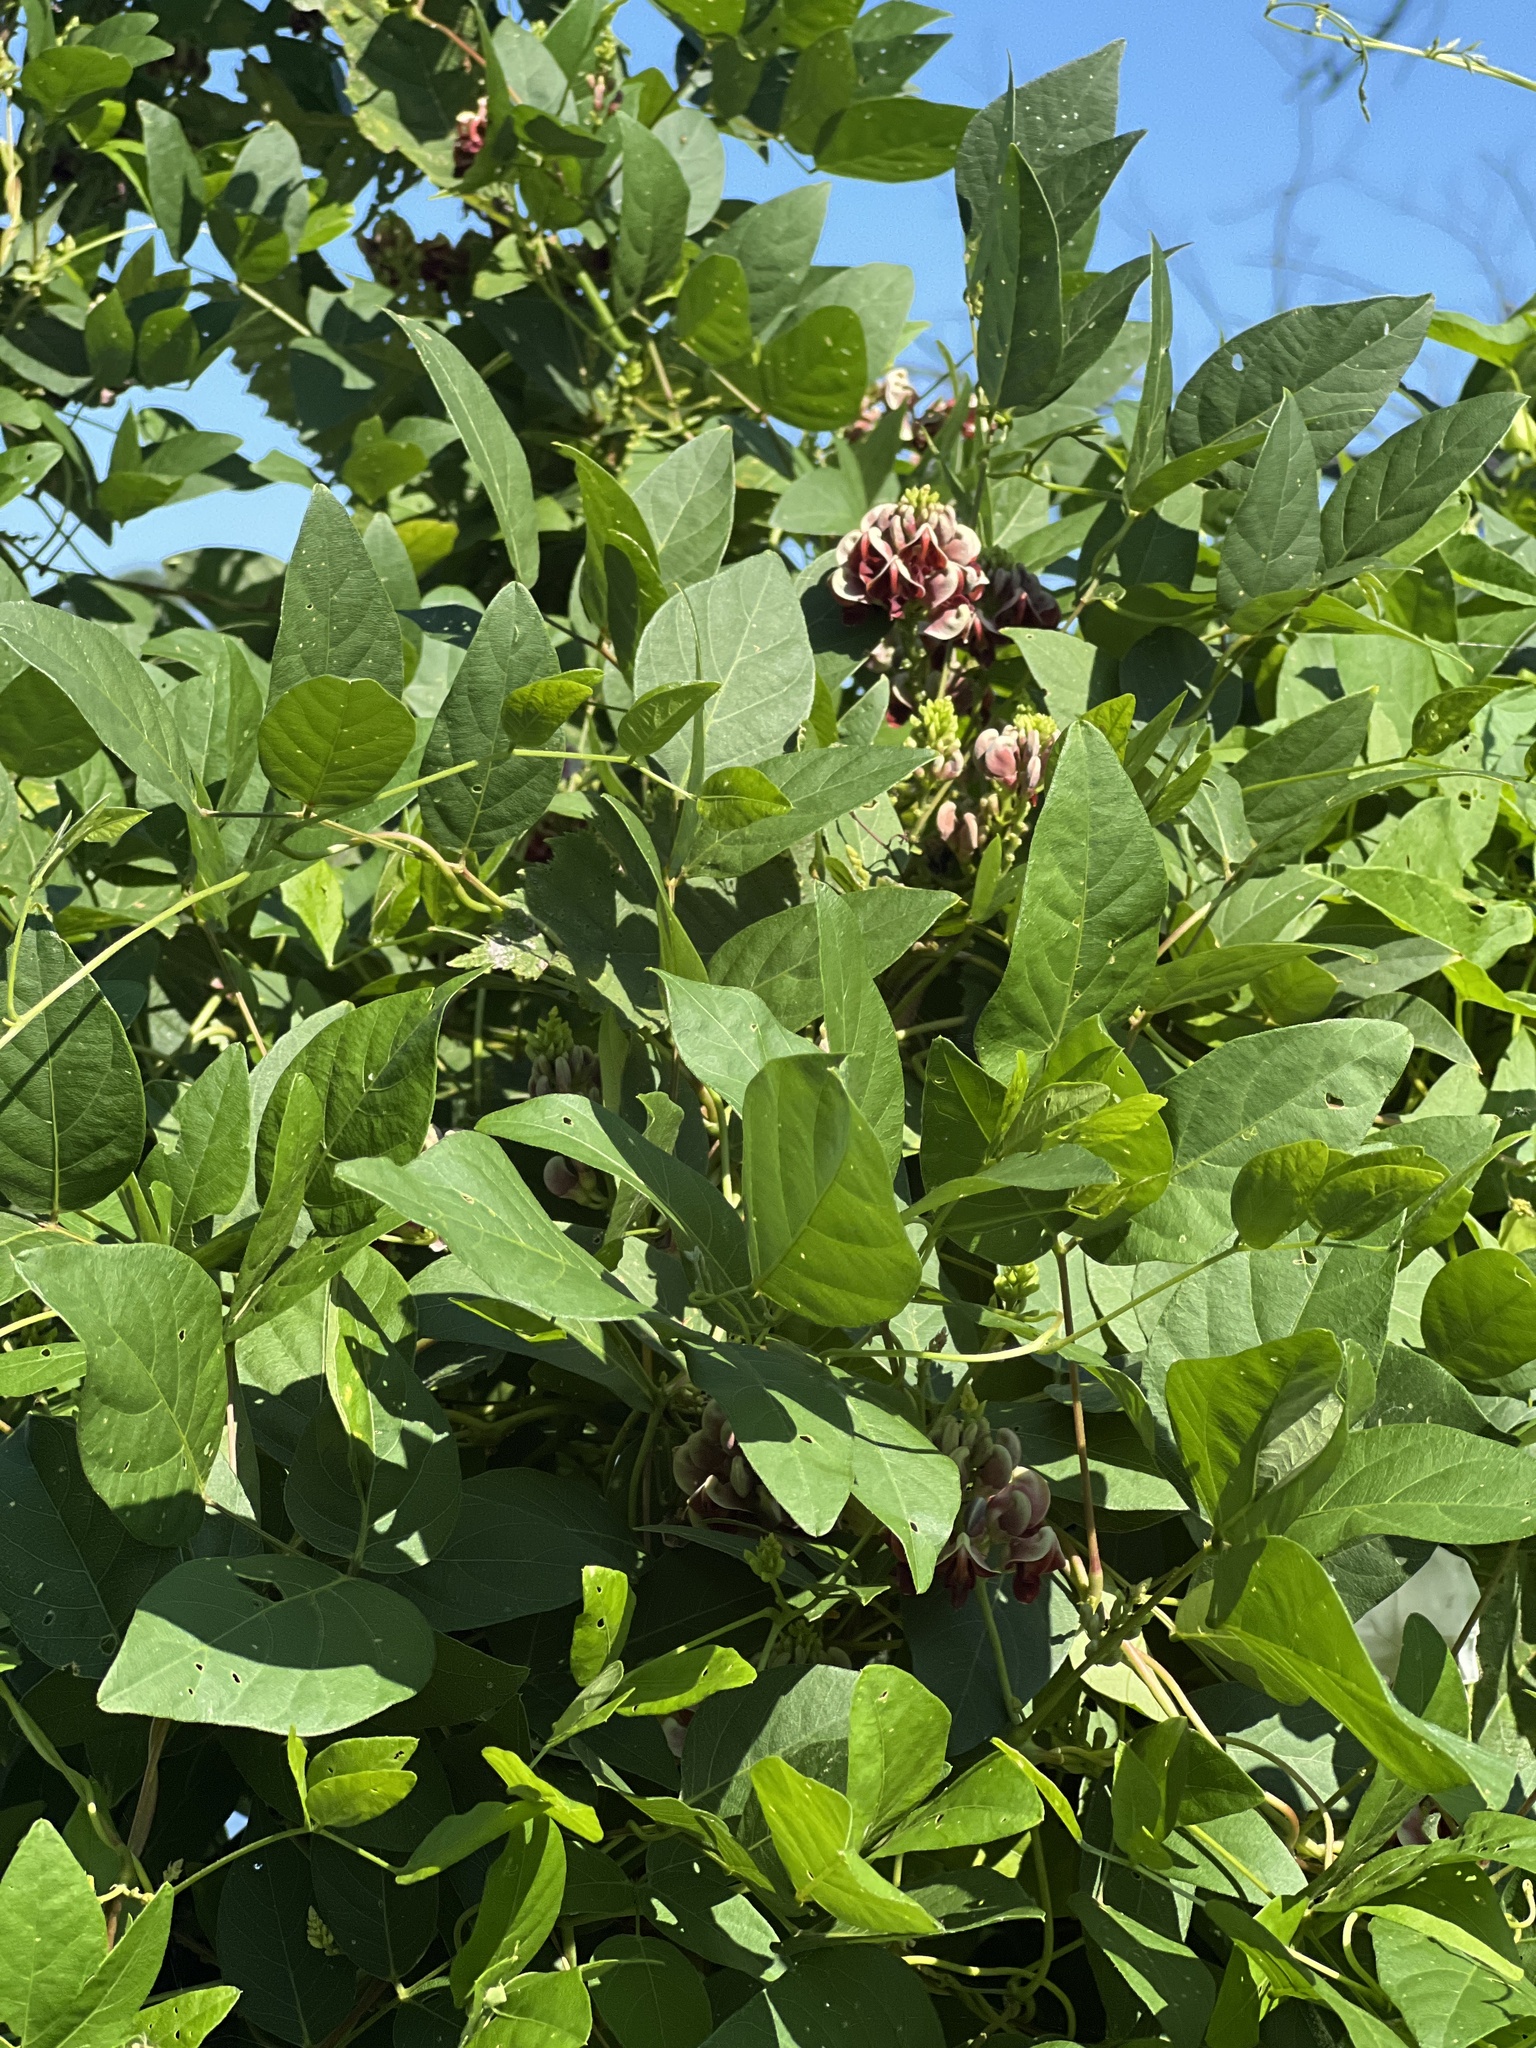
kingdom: Plantae
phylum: Tracheophyta
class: Magnoliopsida
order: Fabales
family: Fabaceae
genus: Apios
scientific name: Apios americana
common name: American potato-bean
